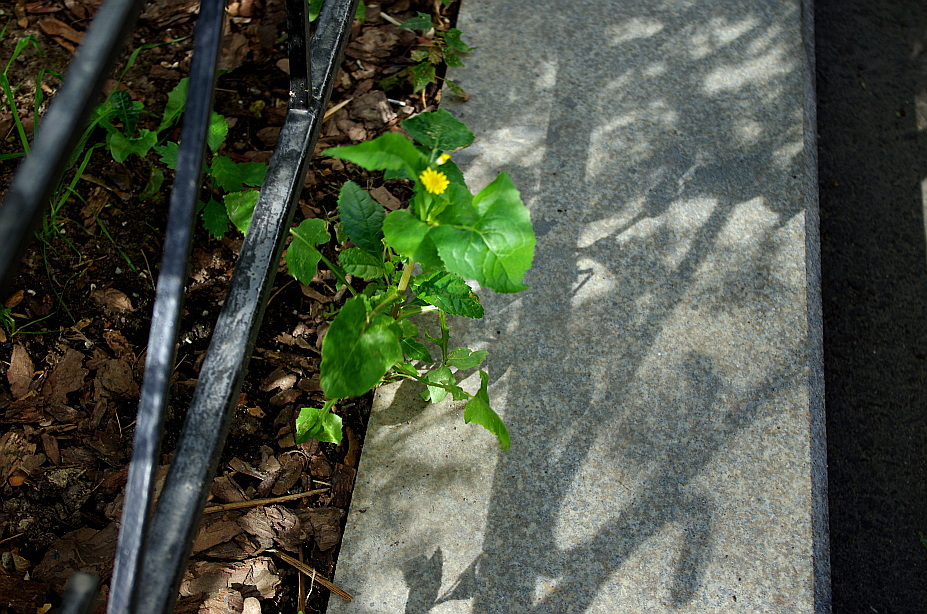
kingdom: Plantae
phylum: Tracheophyta
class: Magnoliopsida
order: Asterales
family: Asteraceae
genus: Sonchus
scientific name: Sonchus oleraceus
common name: Common sowthistle
